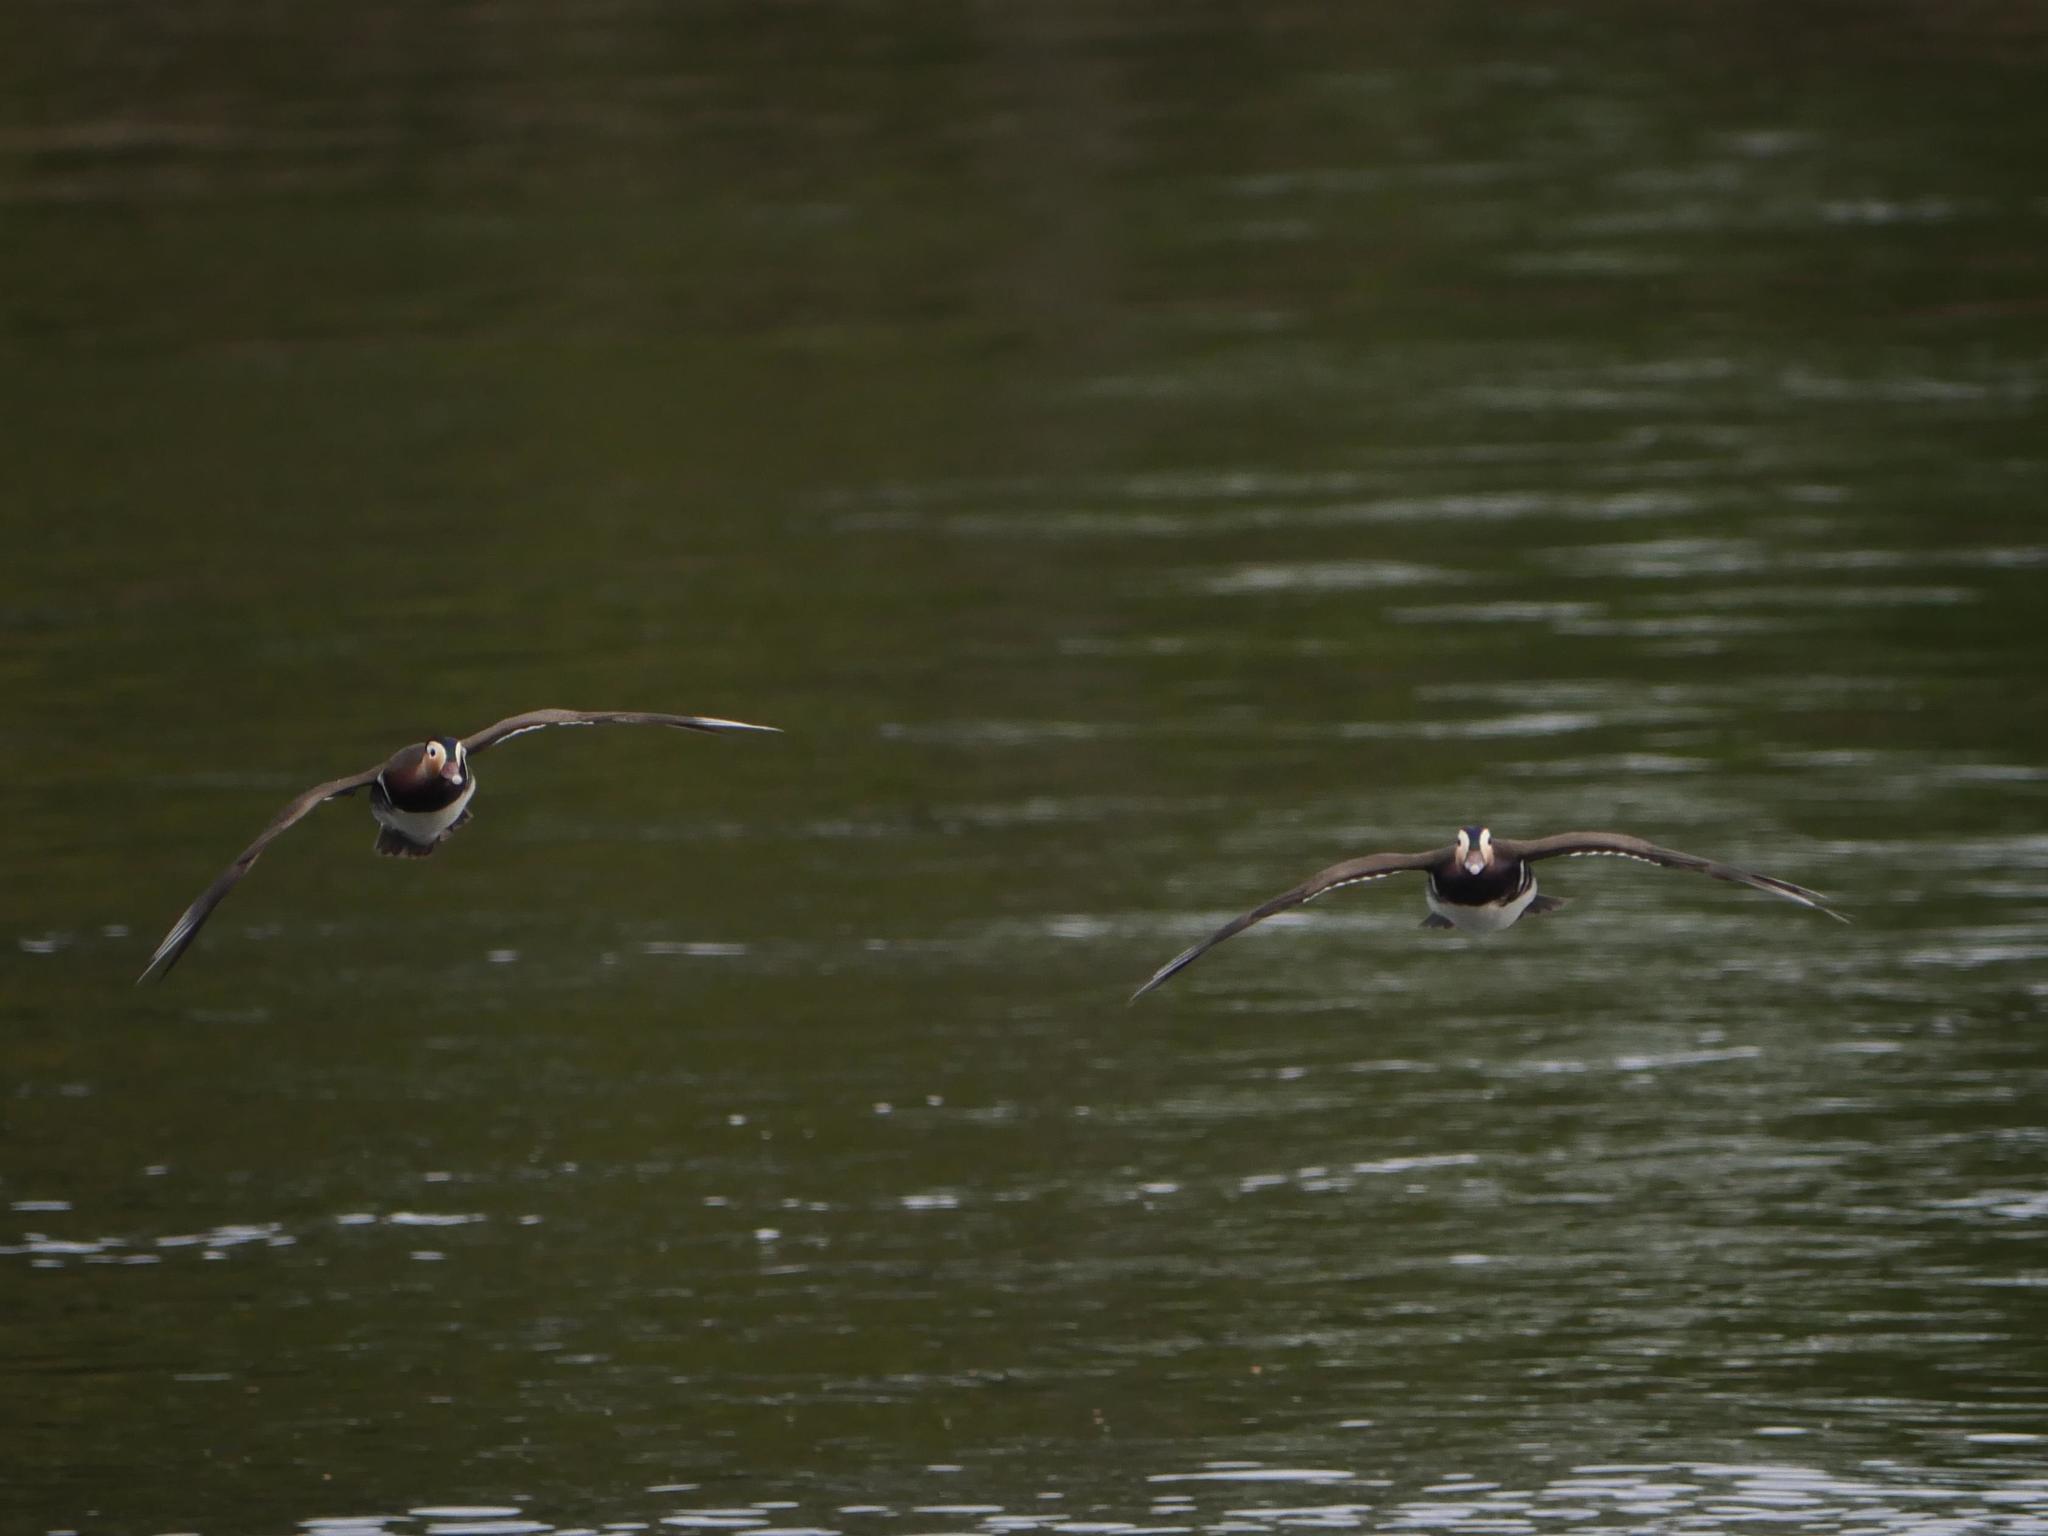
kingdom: Animalia
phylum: Chordata
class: Aves
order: Anseriformes
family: Anatidae
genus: Aix
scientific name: Aix galericulata
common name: Mandarin duck
